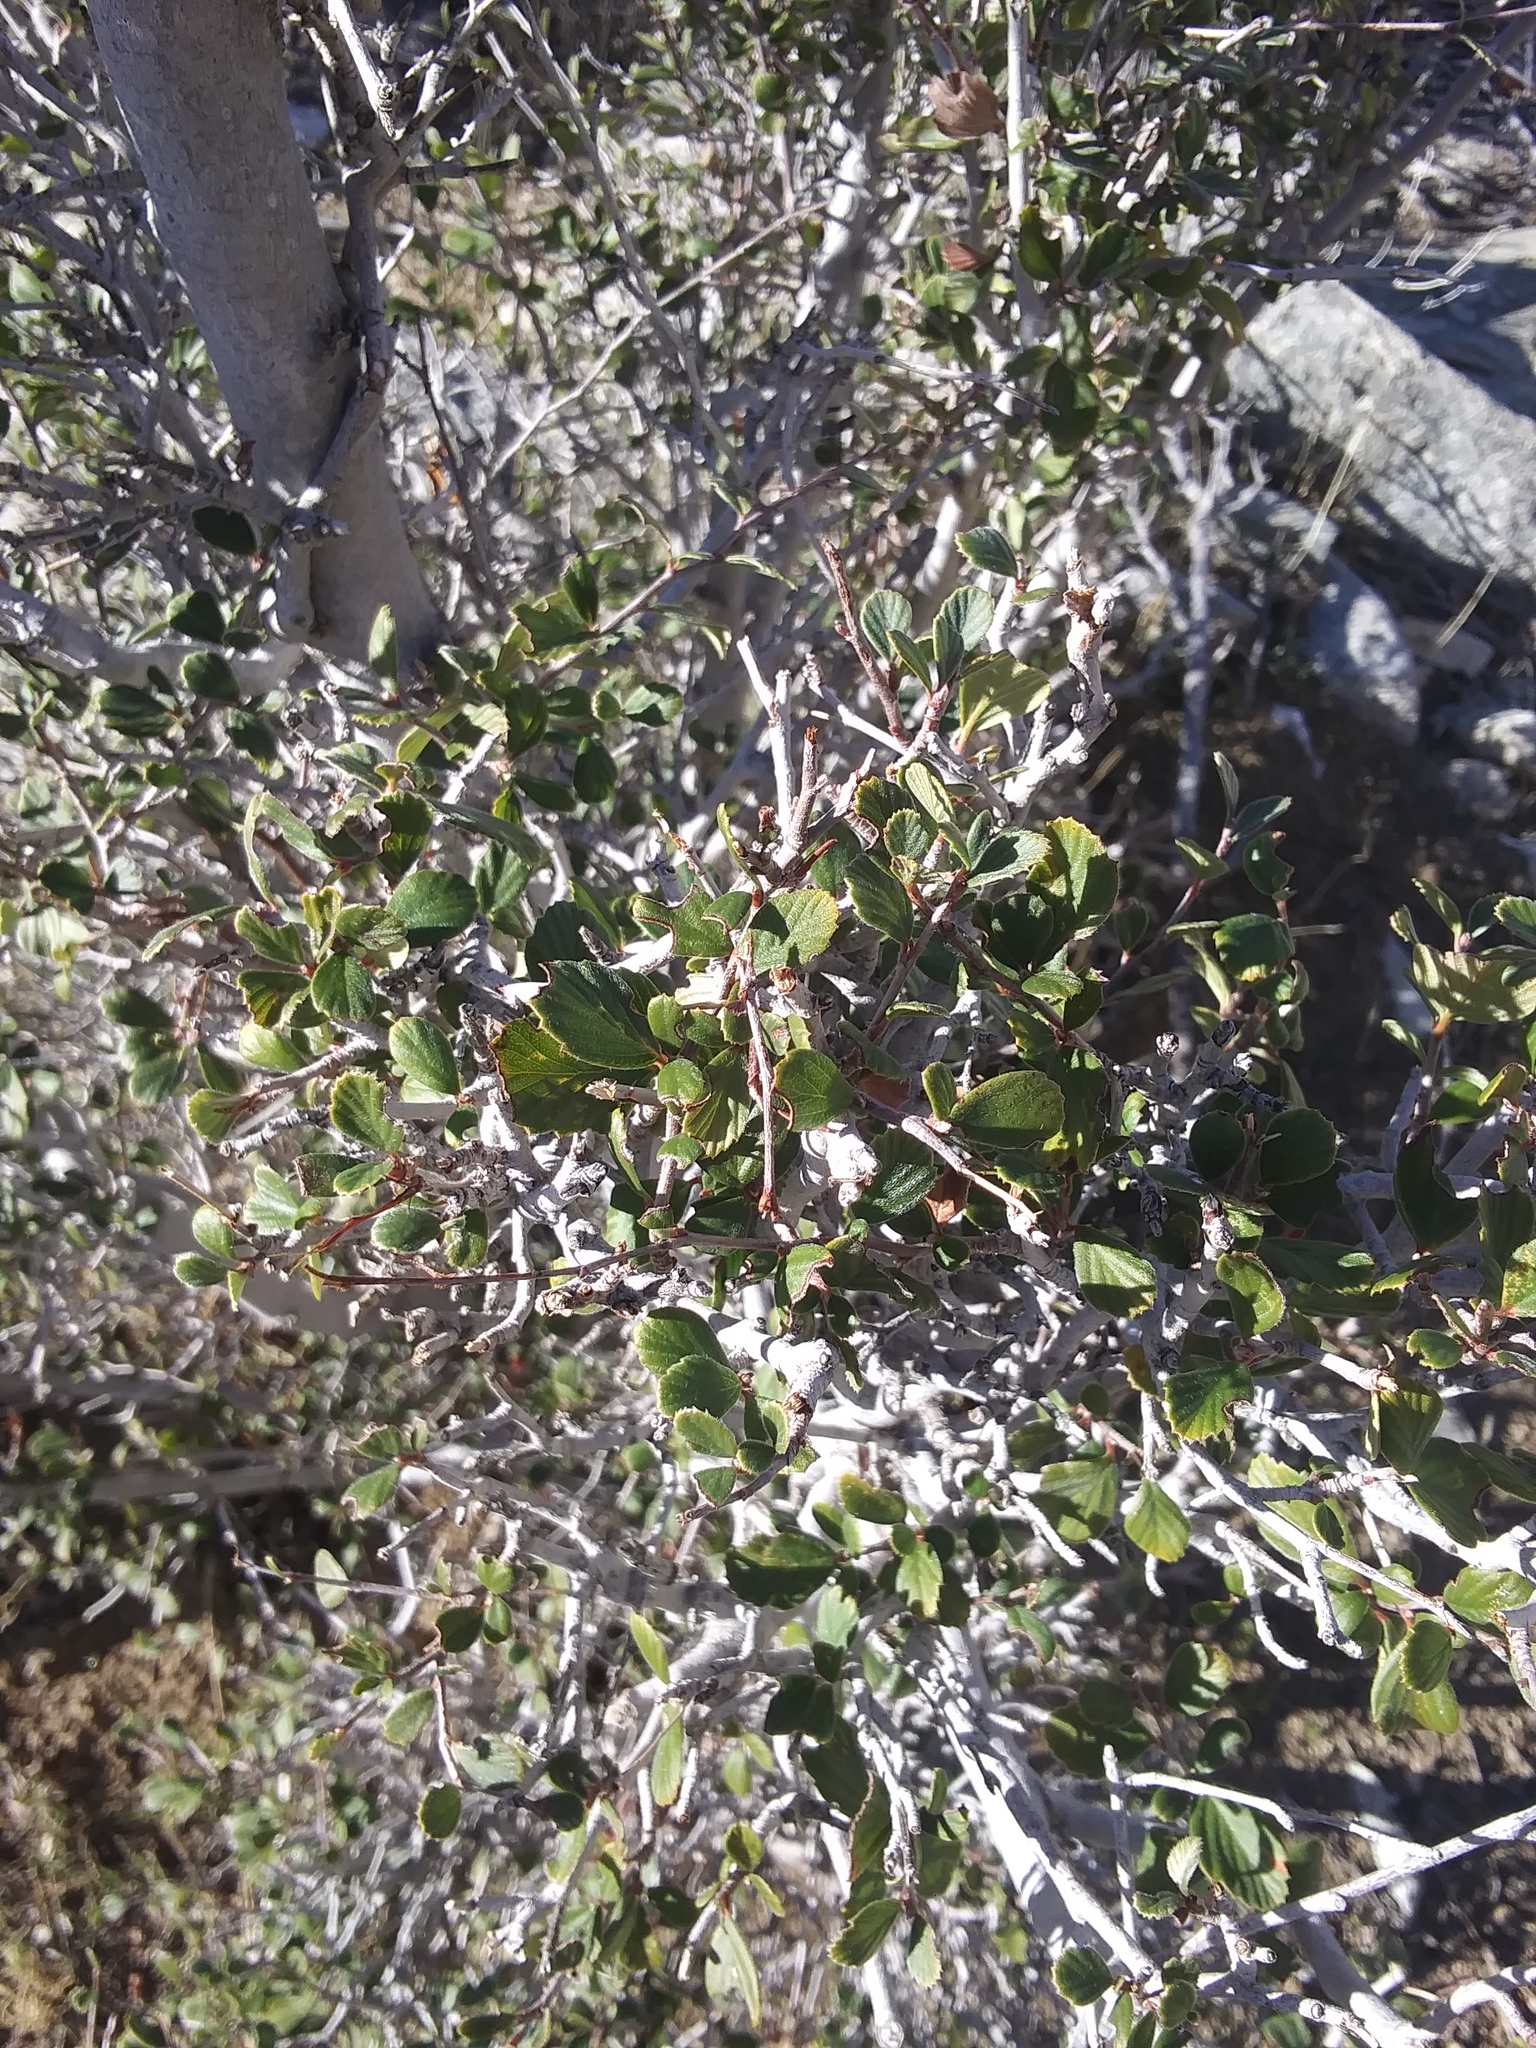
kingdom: Plantae
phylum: Tracheophyta
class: Magnoliopsida
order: Rosales
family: Rosaceae
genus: Cercocarpus
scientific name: Cercocarpus betuloides
